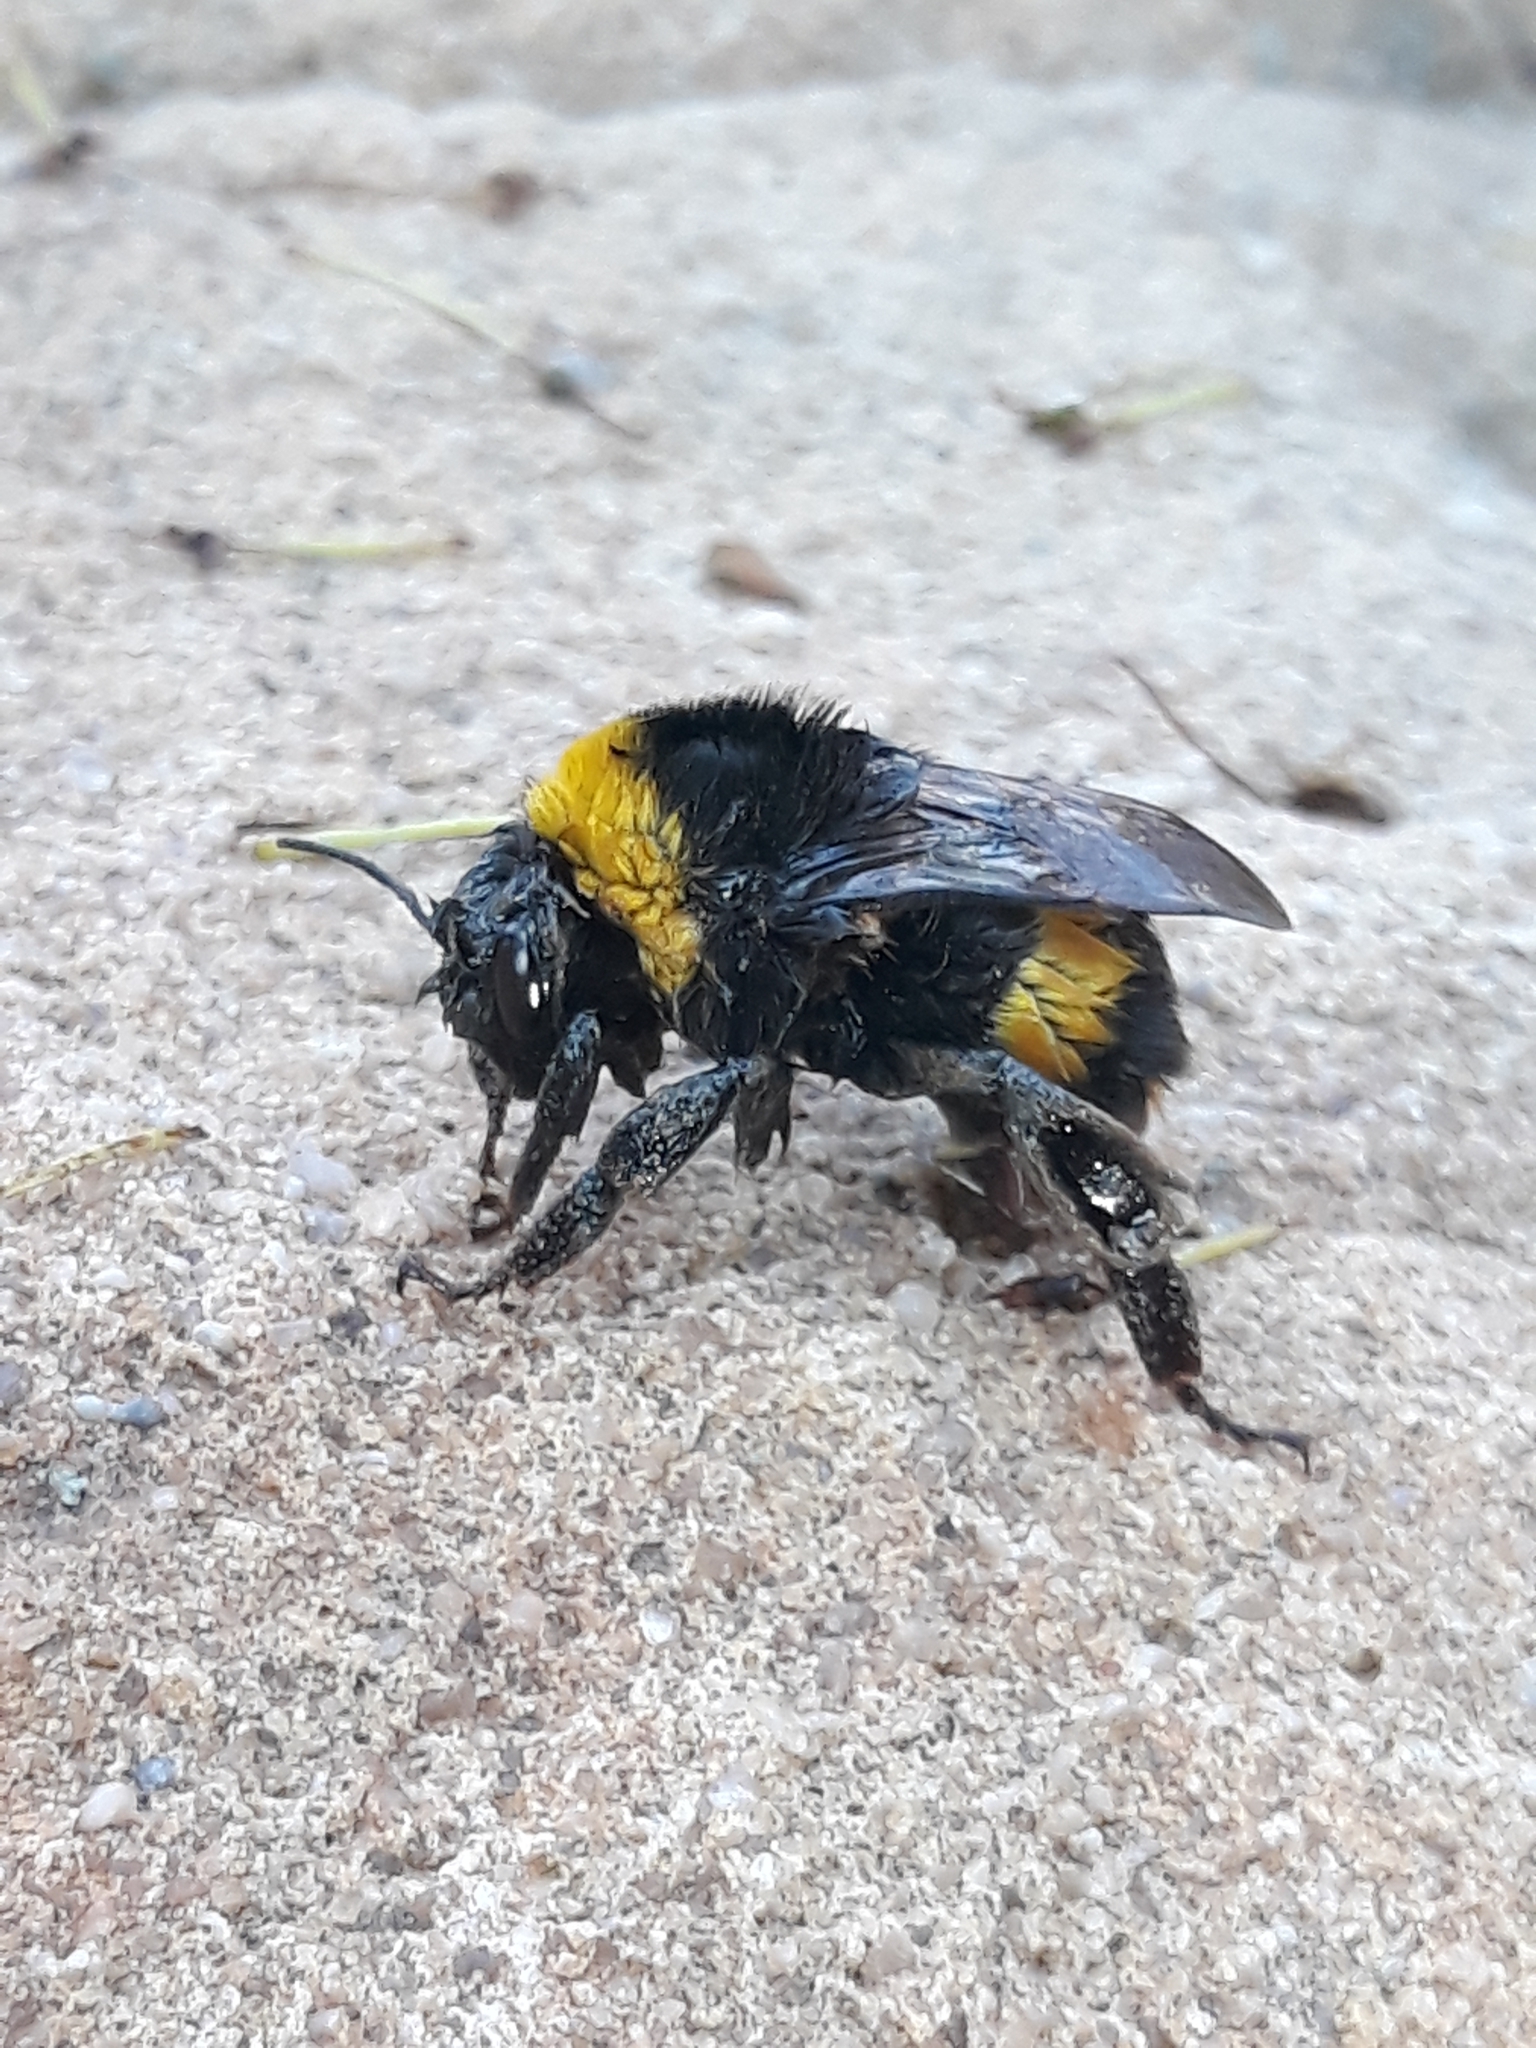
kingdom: Animalia
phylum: Arthropoda
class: Insecta
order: Hymenoptera
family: Apidae
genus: Bombus
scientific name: Bombus terrestris
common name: Buff-tailed bumblebee
